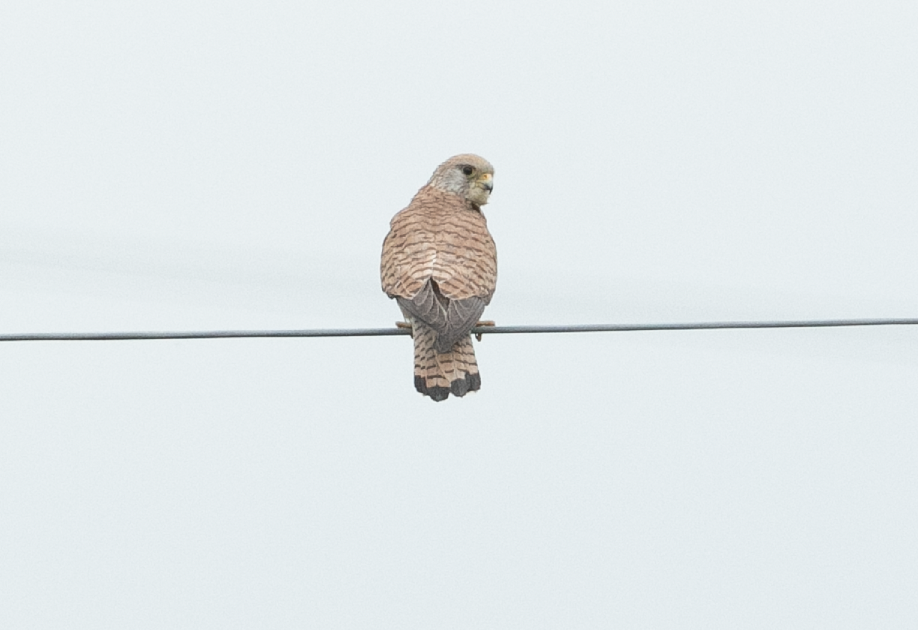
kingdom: Animalia
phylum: Chordata
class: Aves
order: Falconiformes
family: Falconidae
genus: Falco
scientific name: Falco tinnunculus
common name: Common kestrel
